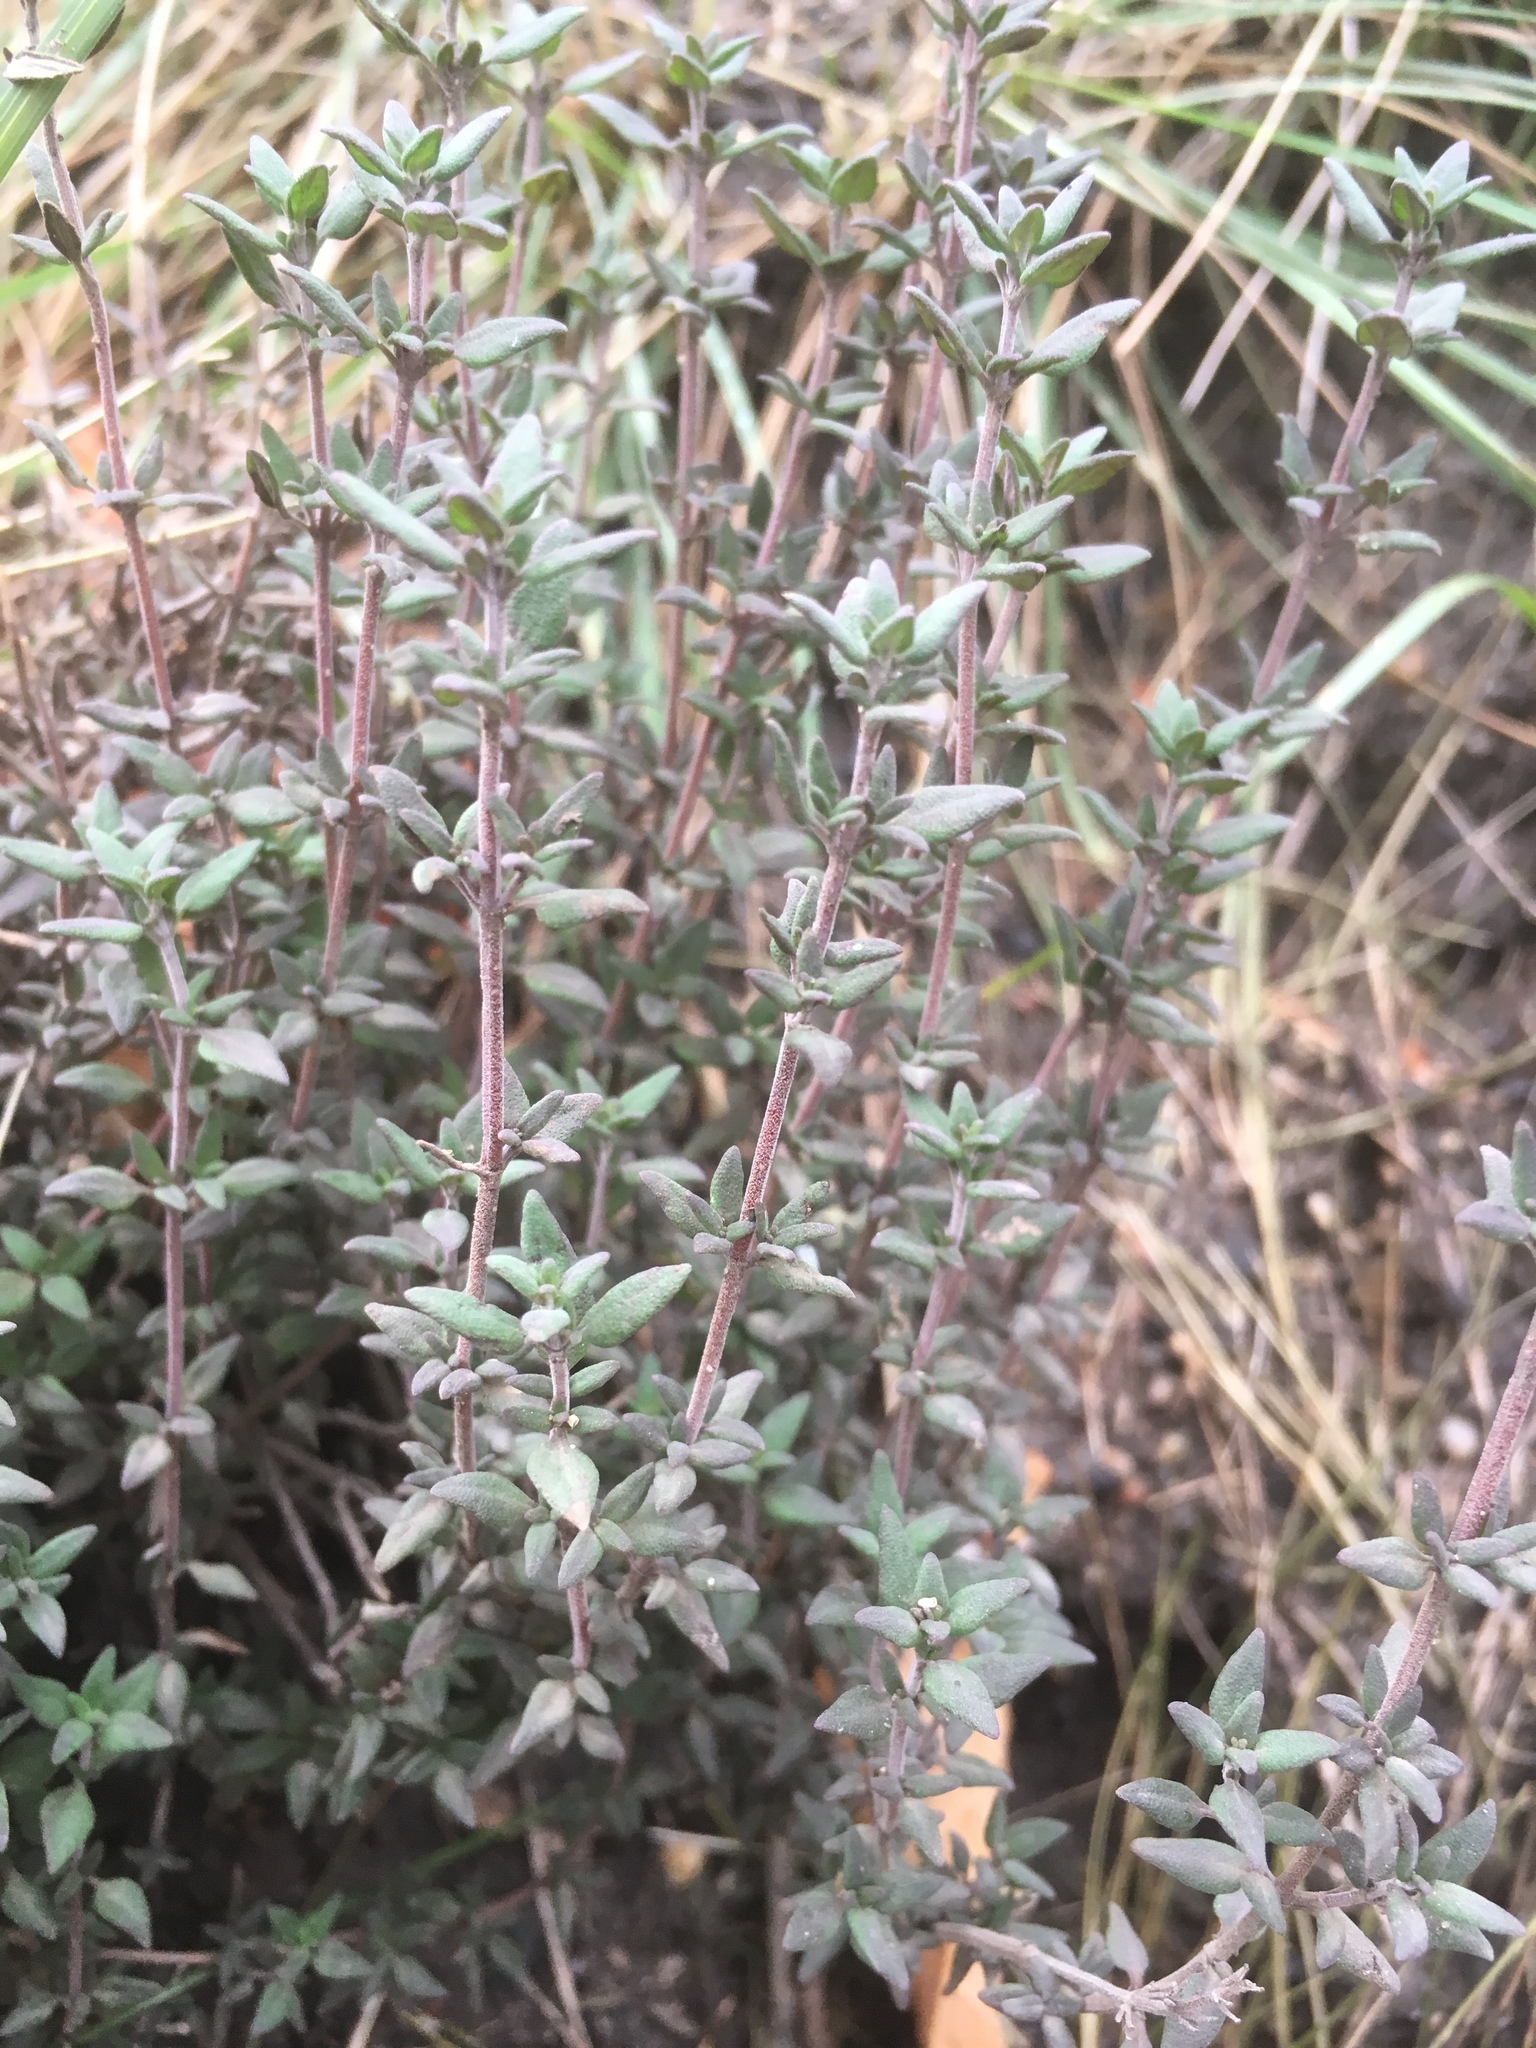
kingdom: Plantae
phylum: Tracheophyta
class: Magnoliopsida
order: Lamiales
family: Lamiaceae
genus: Thymus
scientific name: Thymus vulgaris
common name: Garden thyme
